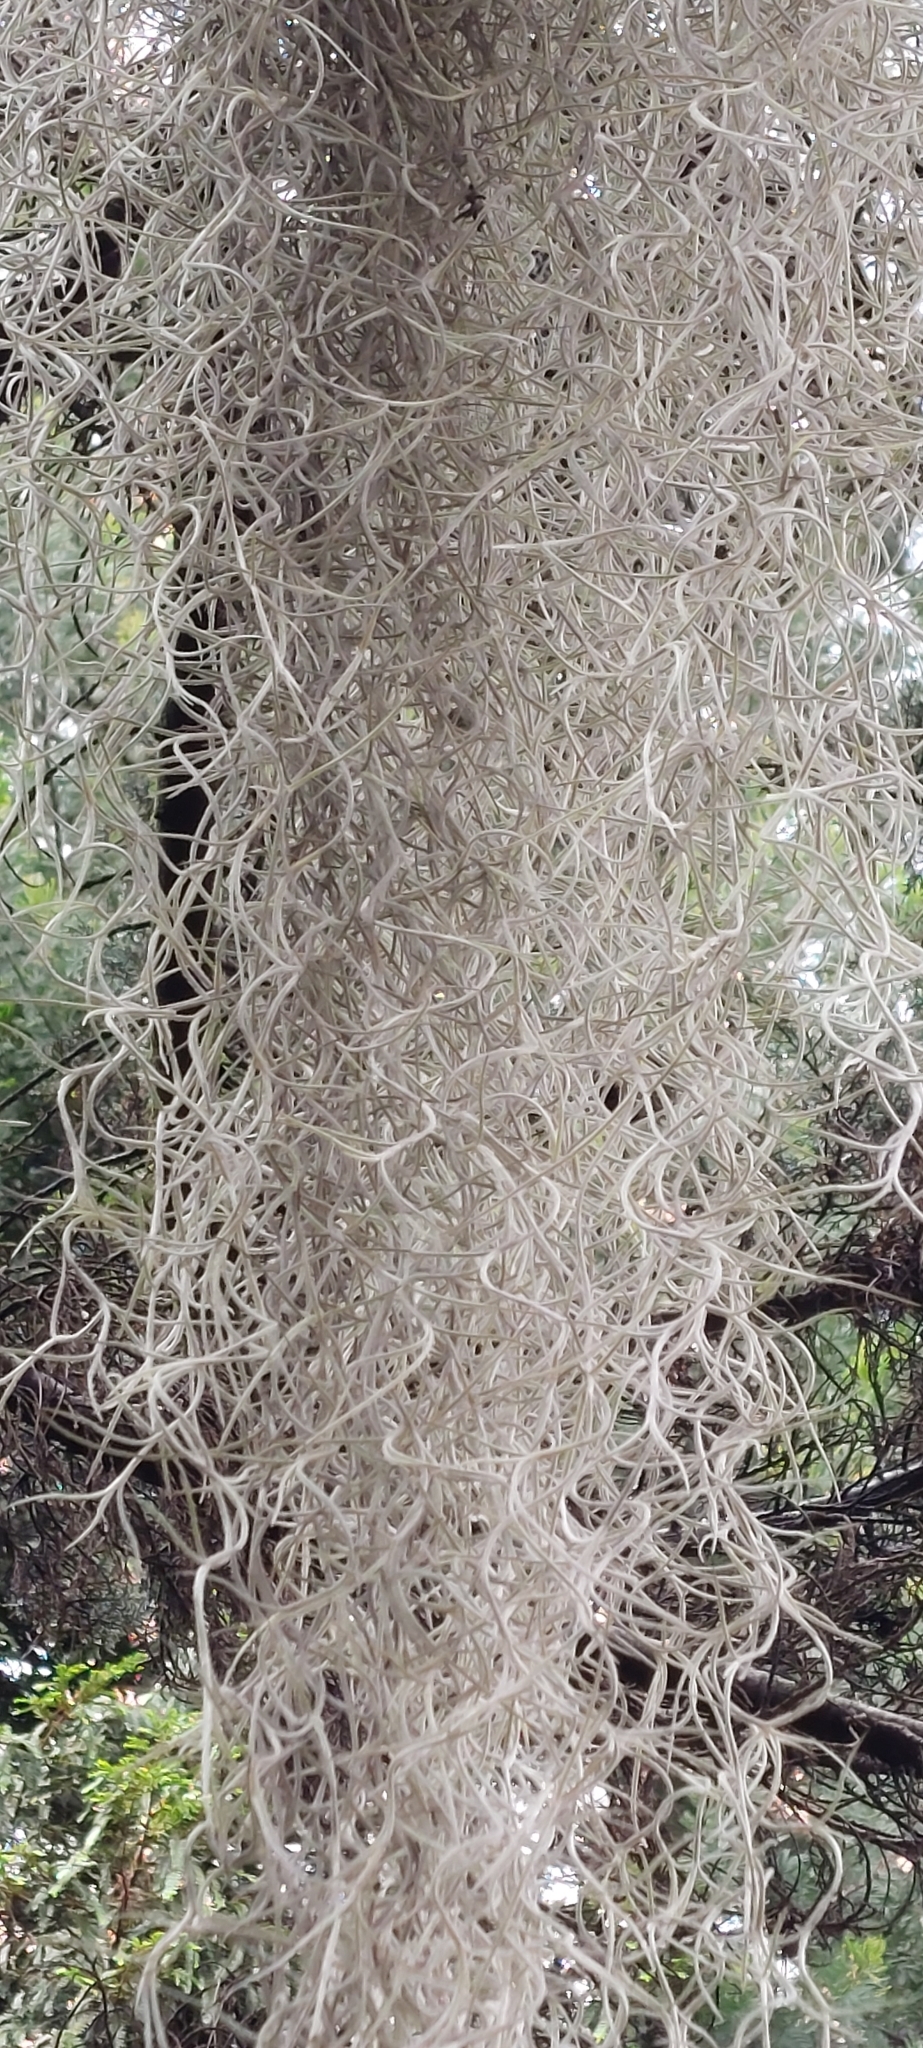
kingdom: Plantae
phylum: Tracheophyta
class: Liliopsida
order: Poales
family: Bromeliaceae
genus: Tillandsia
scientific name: Tillandsia usneoides
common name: Spanish moss
